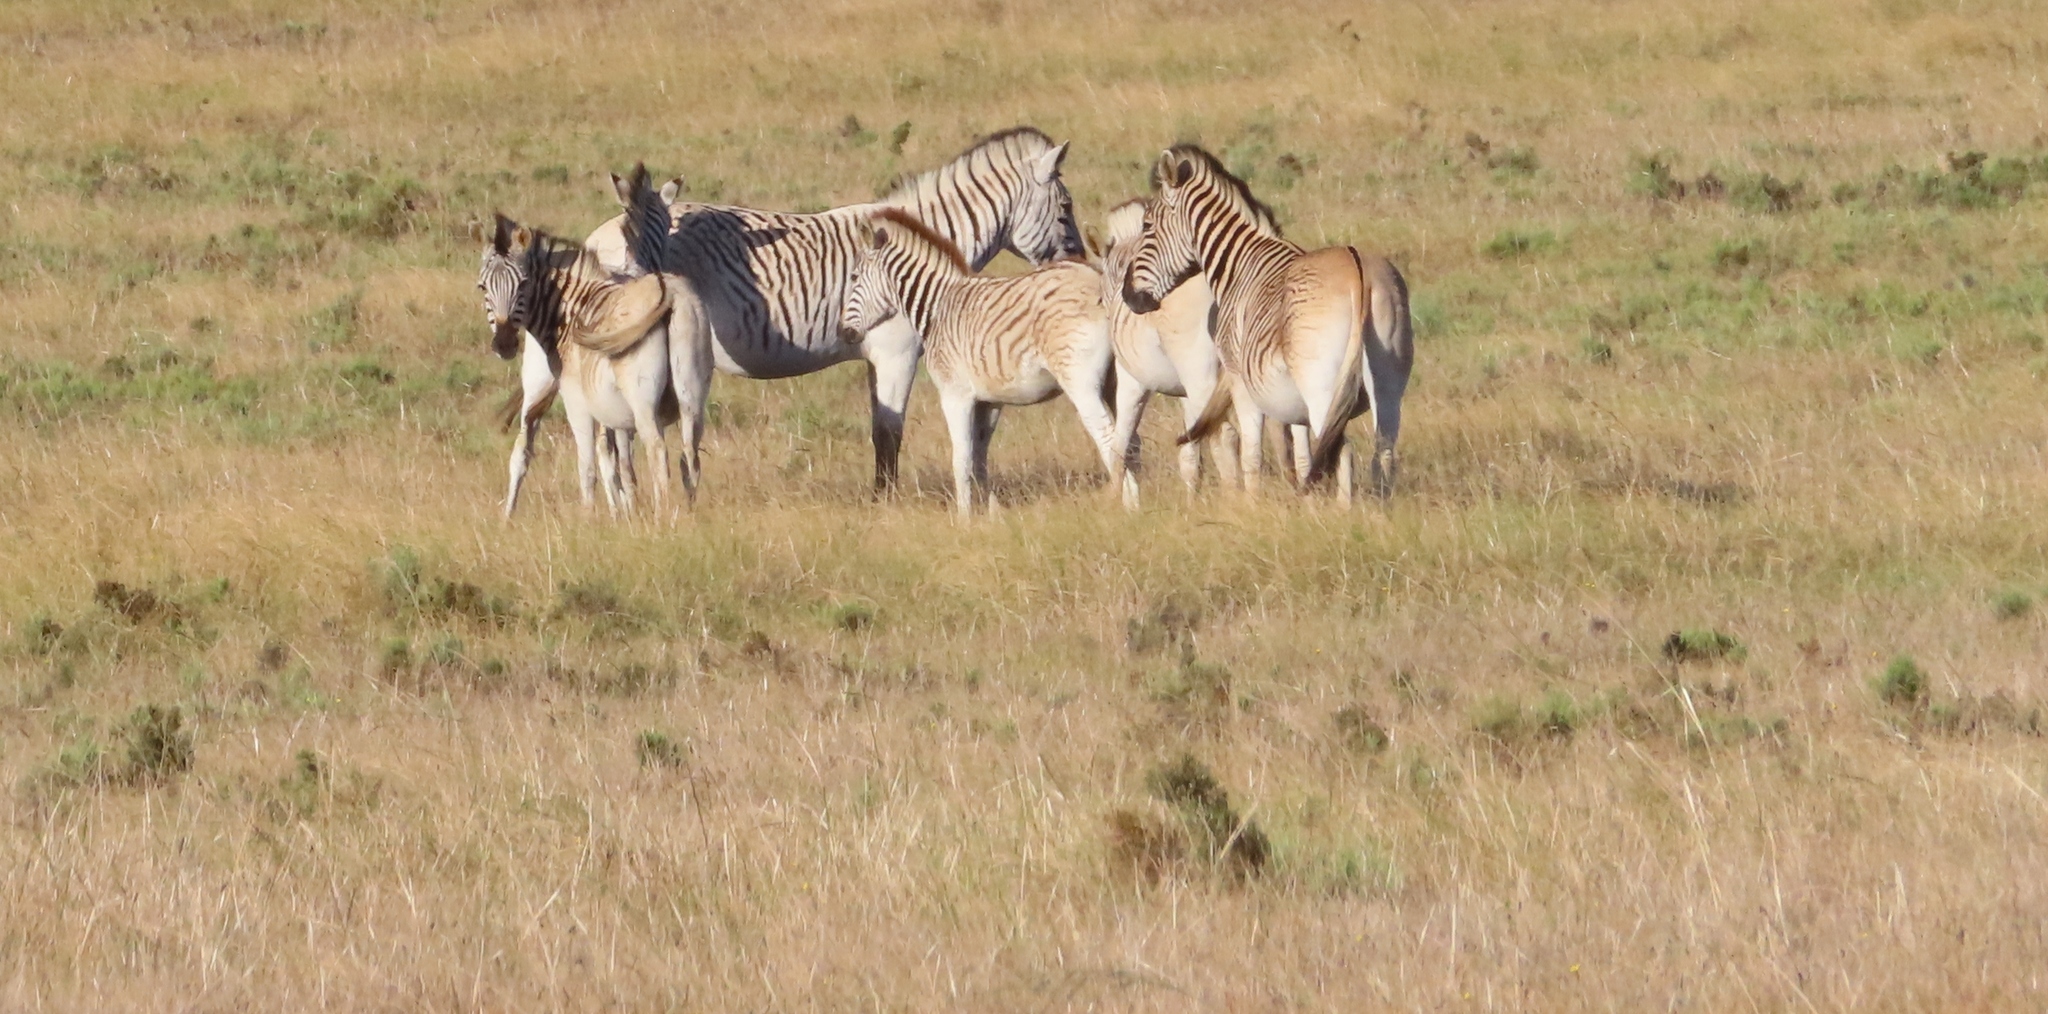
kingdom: Animalia
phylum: Chordata
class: Mammalia
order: Perissodactyla
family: Equidae
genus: Equus
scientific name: Equus quagga
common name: Plains zebra
